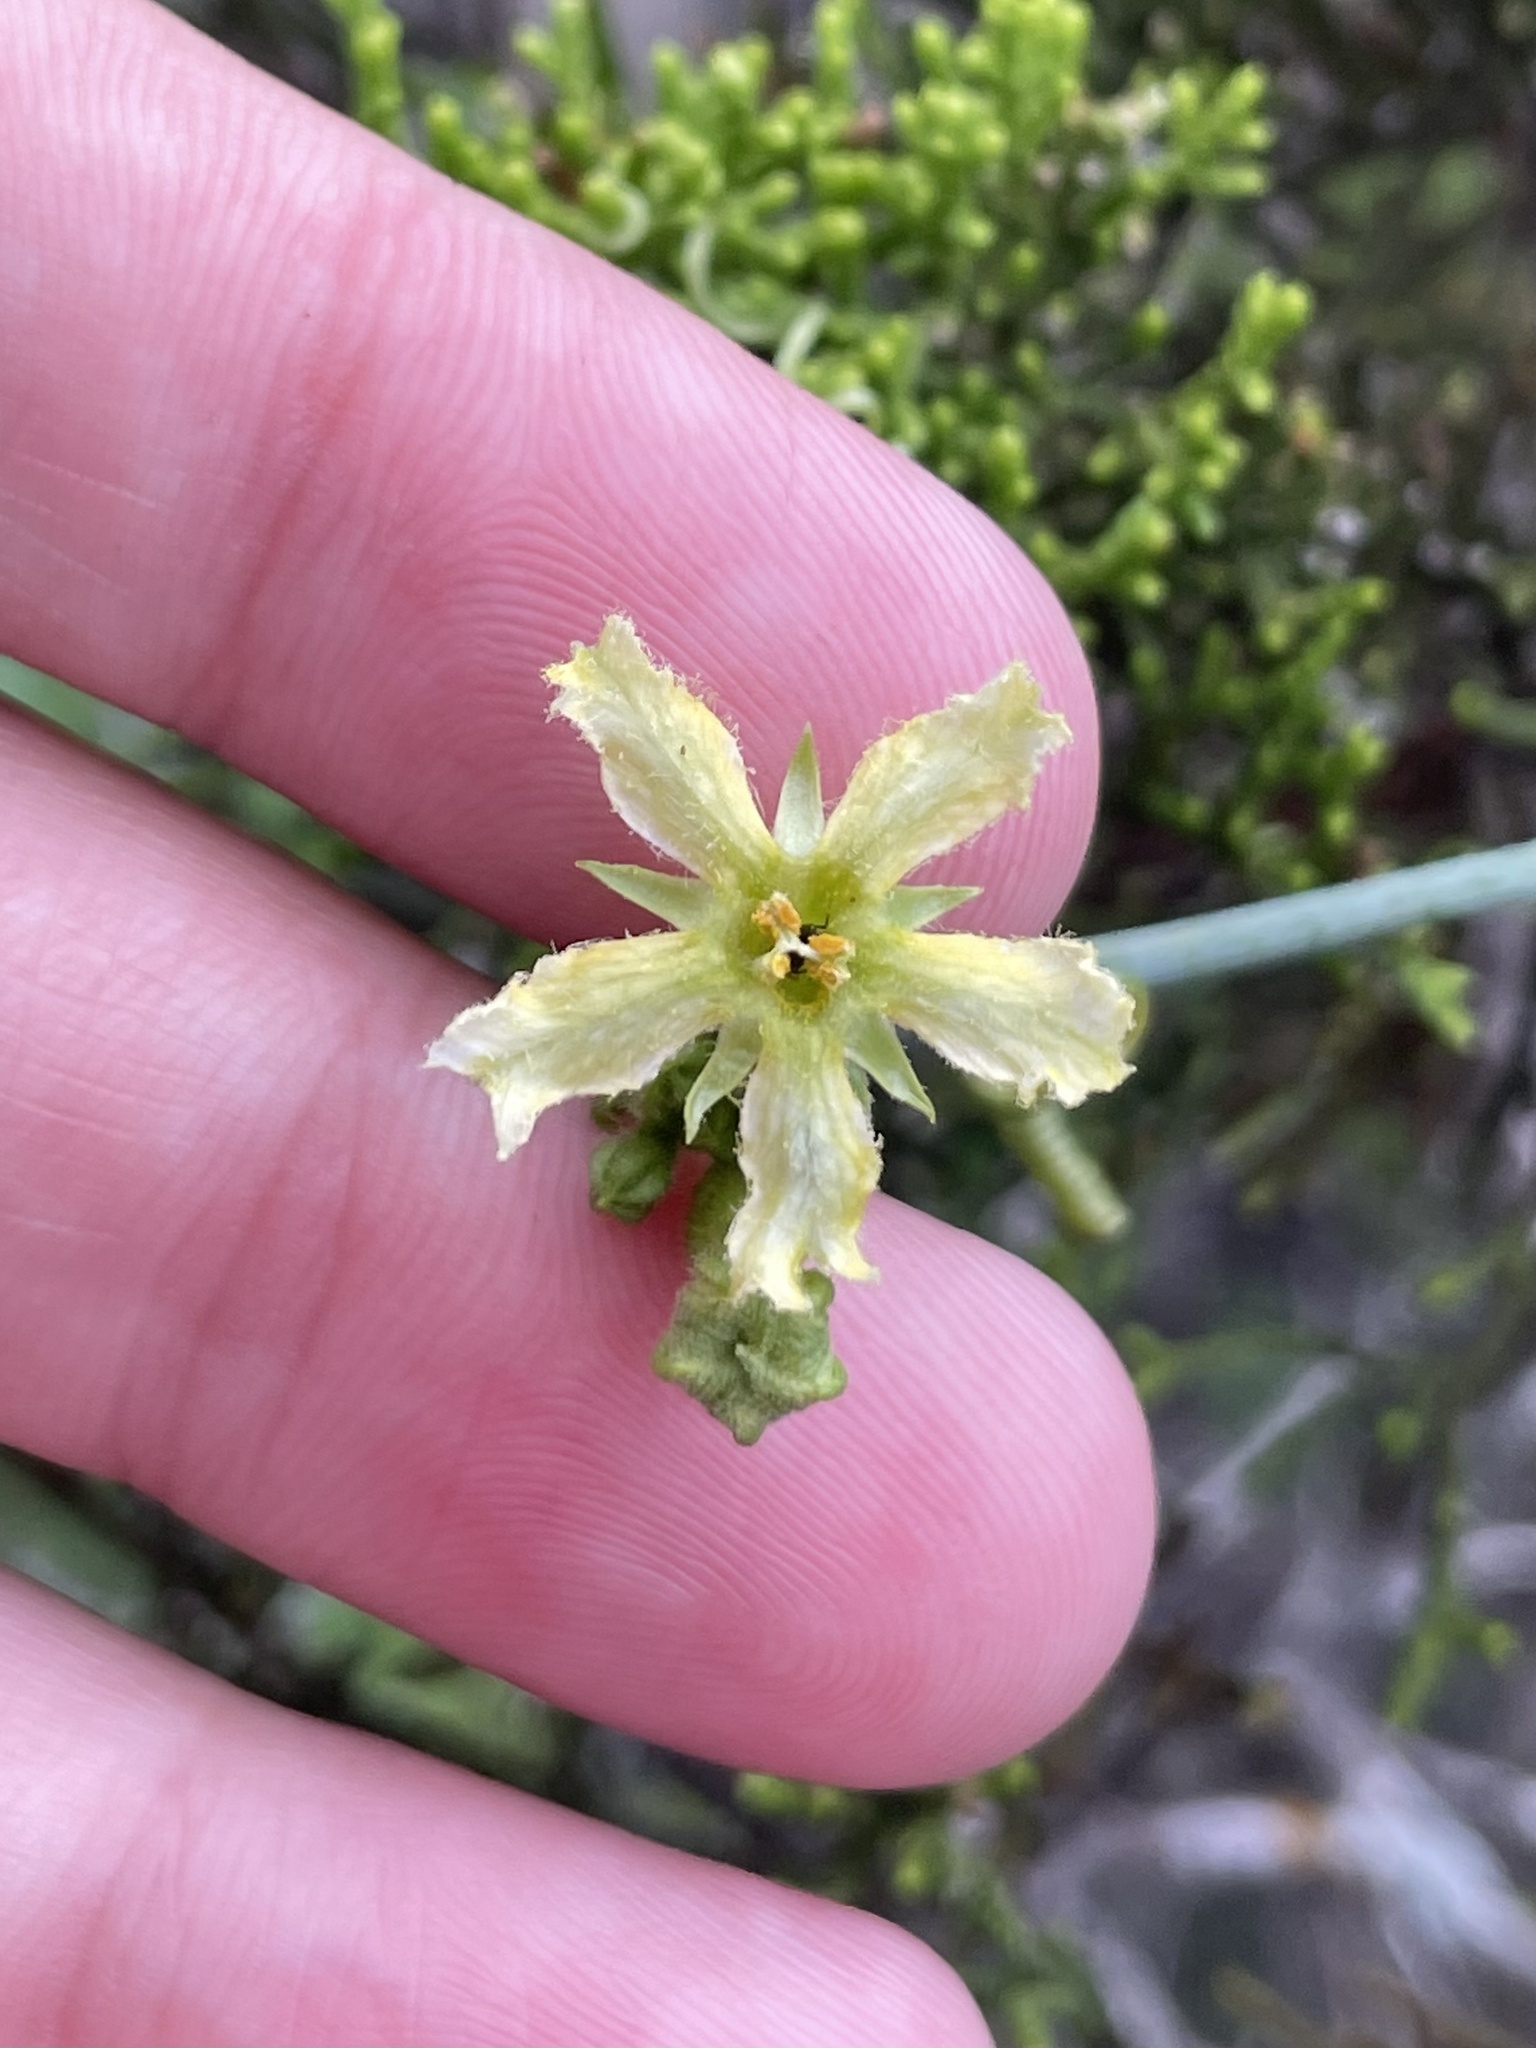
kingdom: Plantae
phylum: Tracheophyta
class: Magnoliopsida
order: Cucurbitales
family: Cucurbitaceae
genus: Ibervillea
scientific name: Ibervillea lindheimeri
